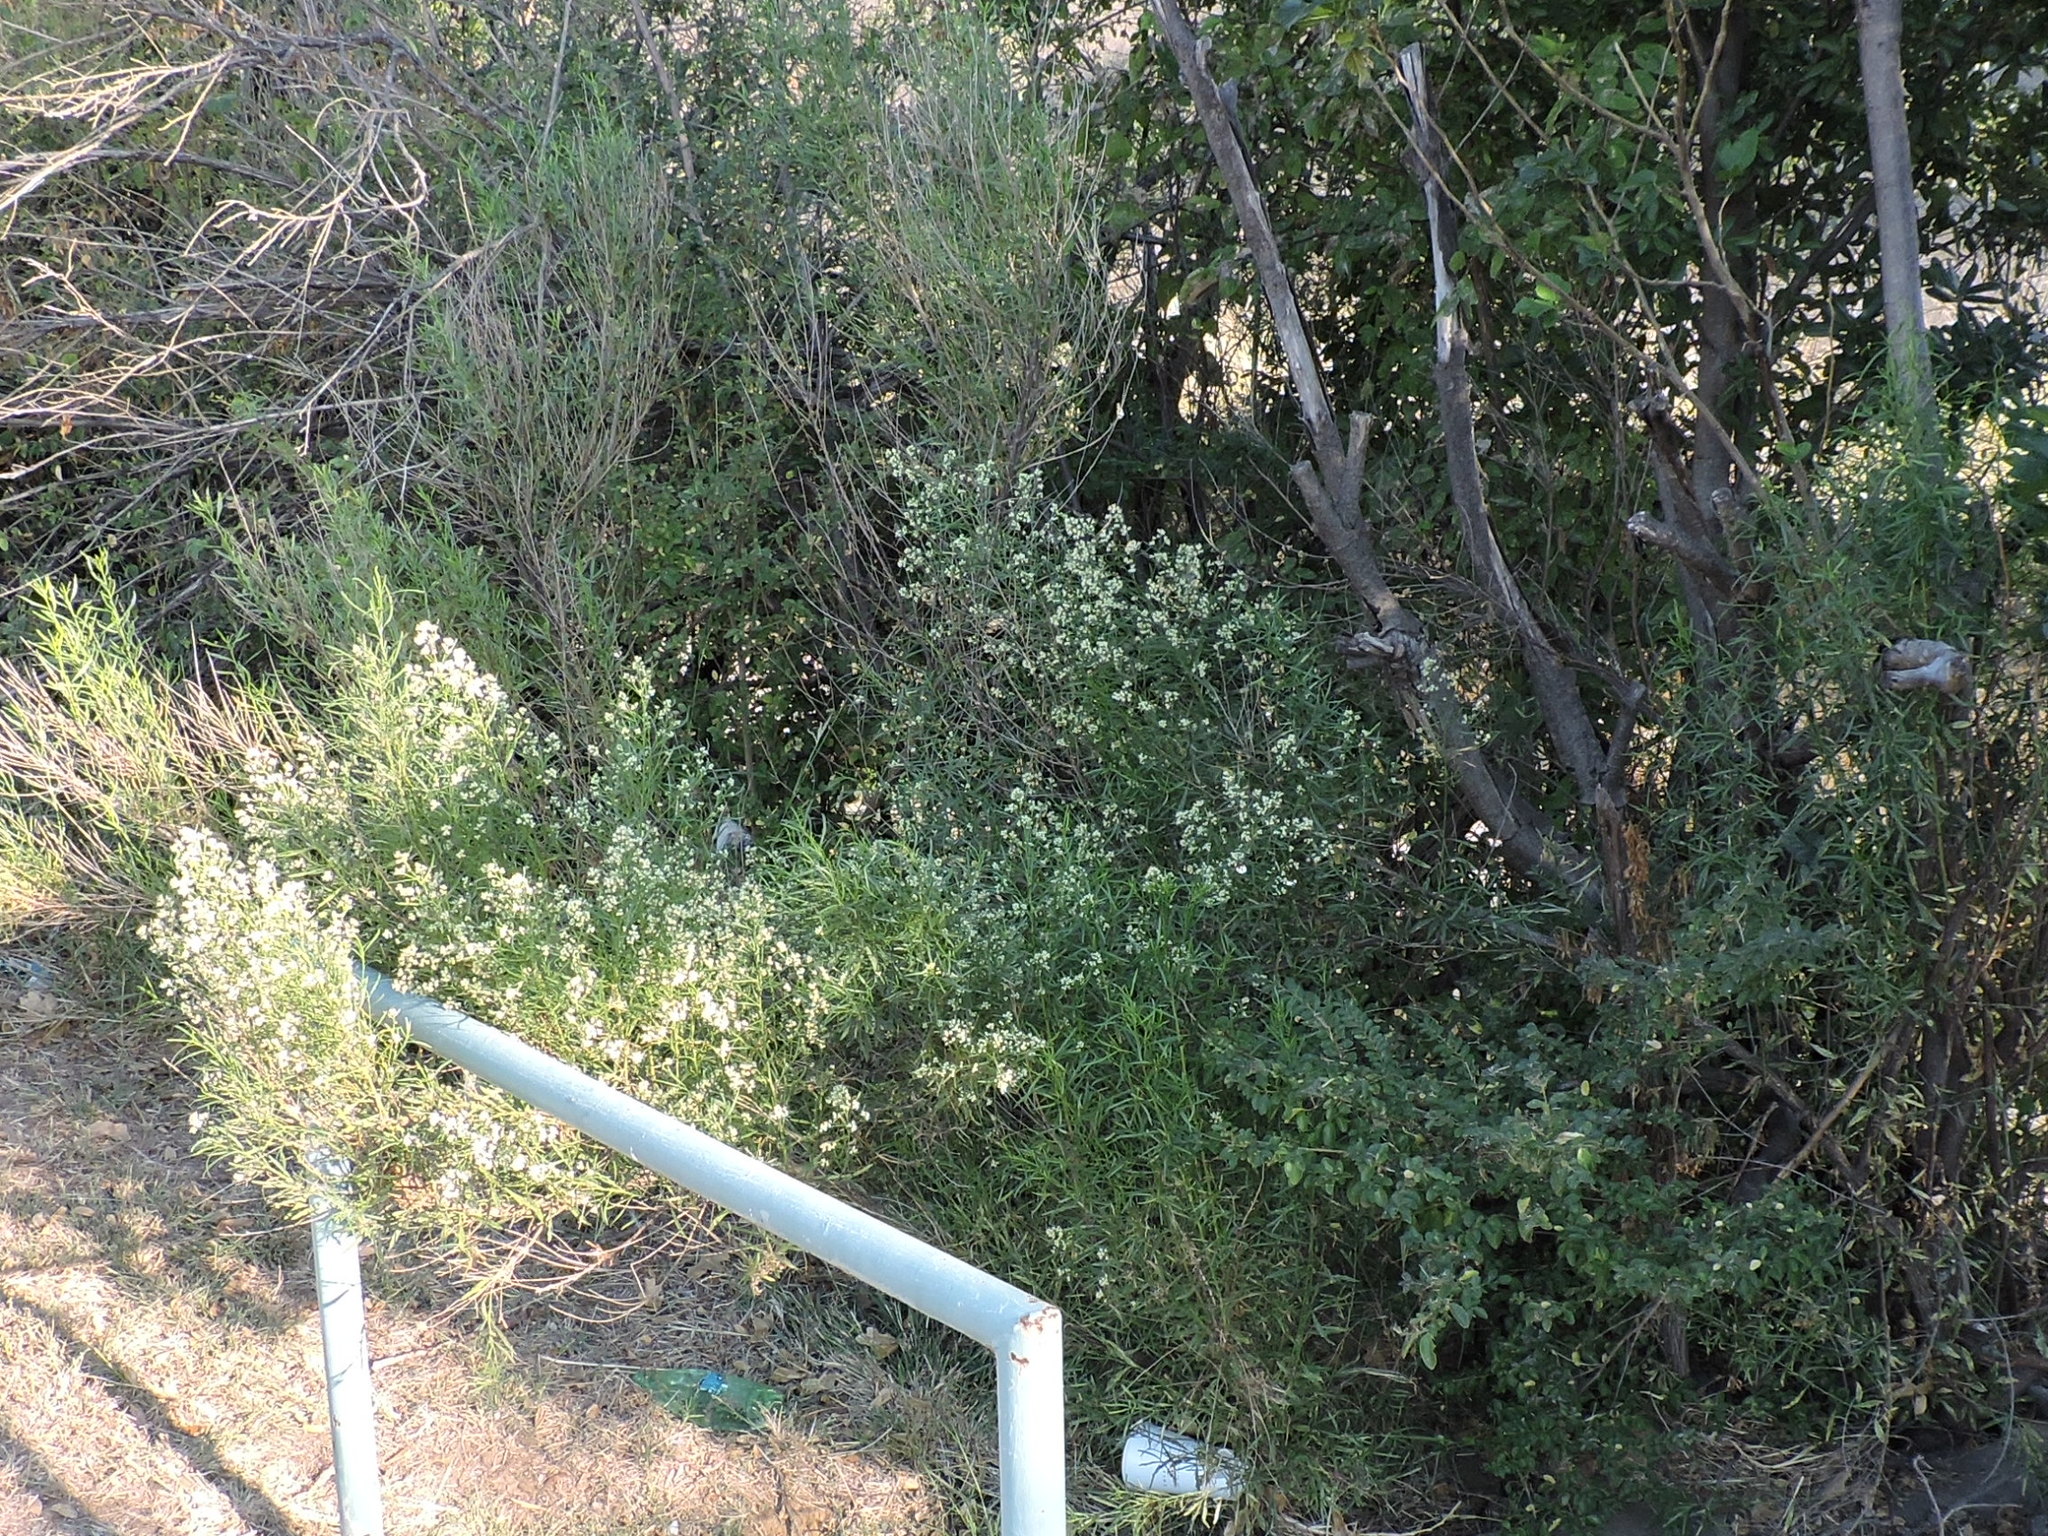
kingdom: Plantae
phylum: Tracheophyta
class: Magnoliopsida
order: Asterales
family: Asteraceae
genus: Baccharis
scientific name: Baccharis neglecta
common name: Roosevelt-weed
